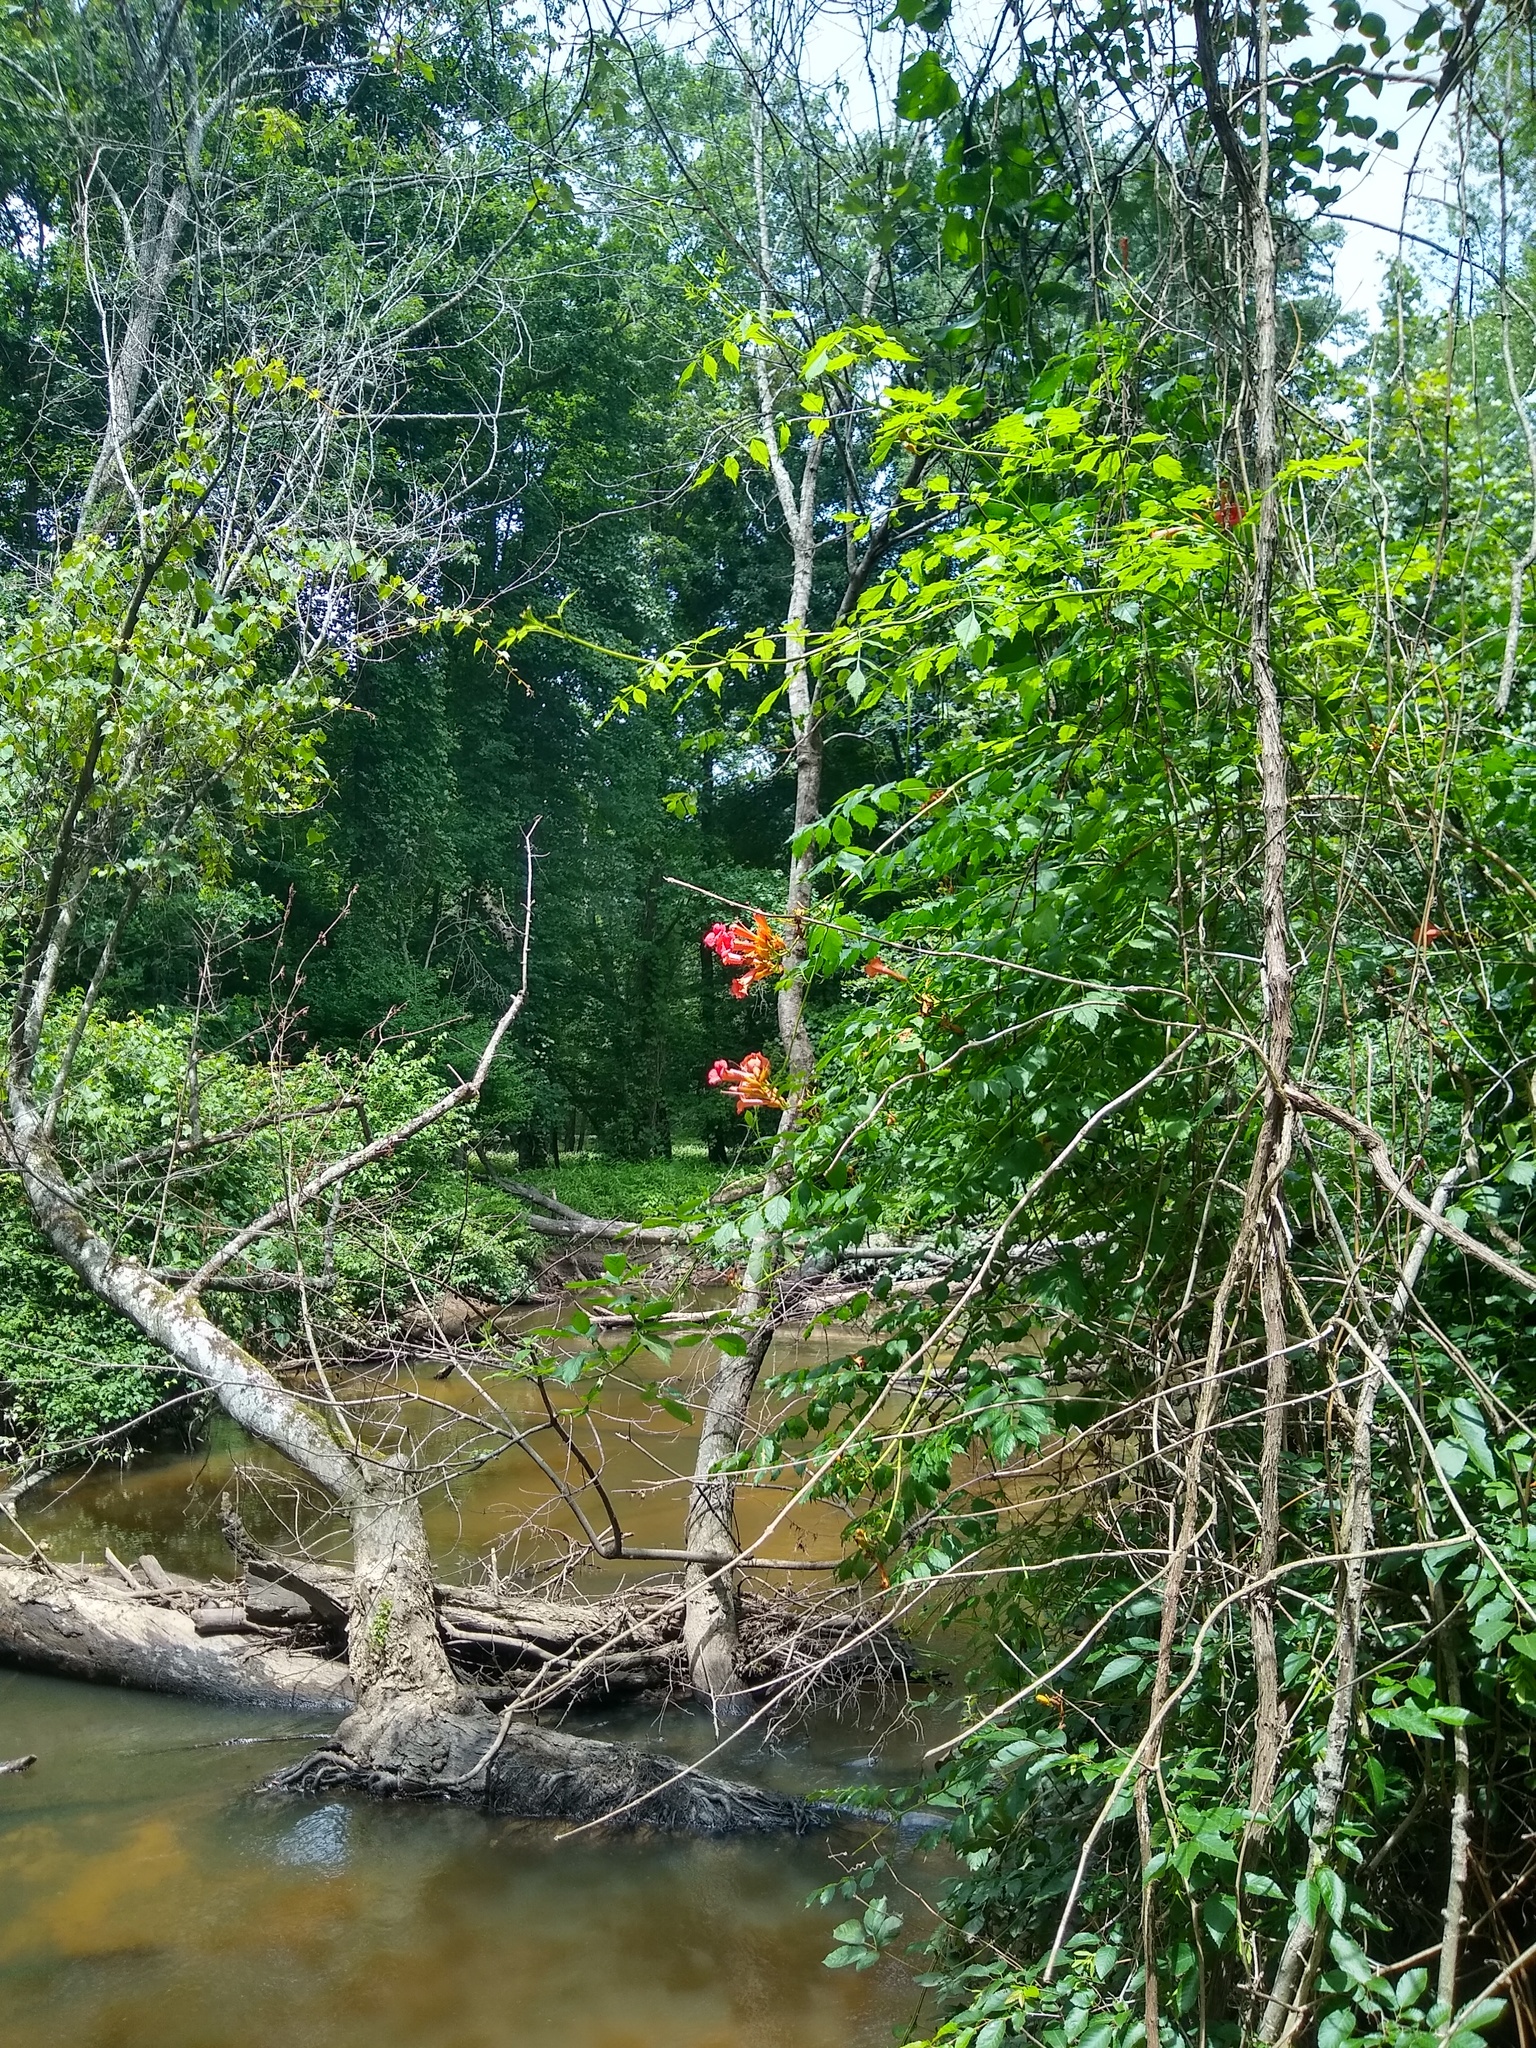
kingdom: Plantae
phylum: Tracheophyta
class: Magnoliopsida
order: Lamiales
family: Bignoniaceae
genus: Campsis
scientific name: Campsis radicans
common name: Trumpet-creeper
